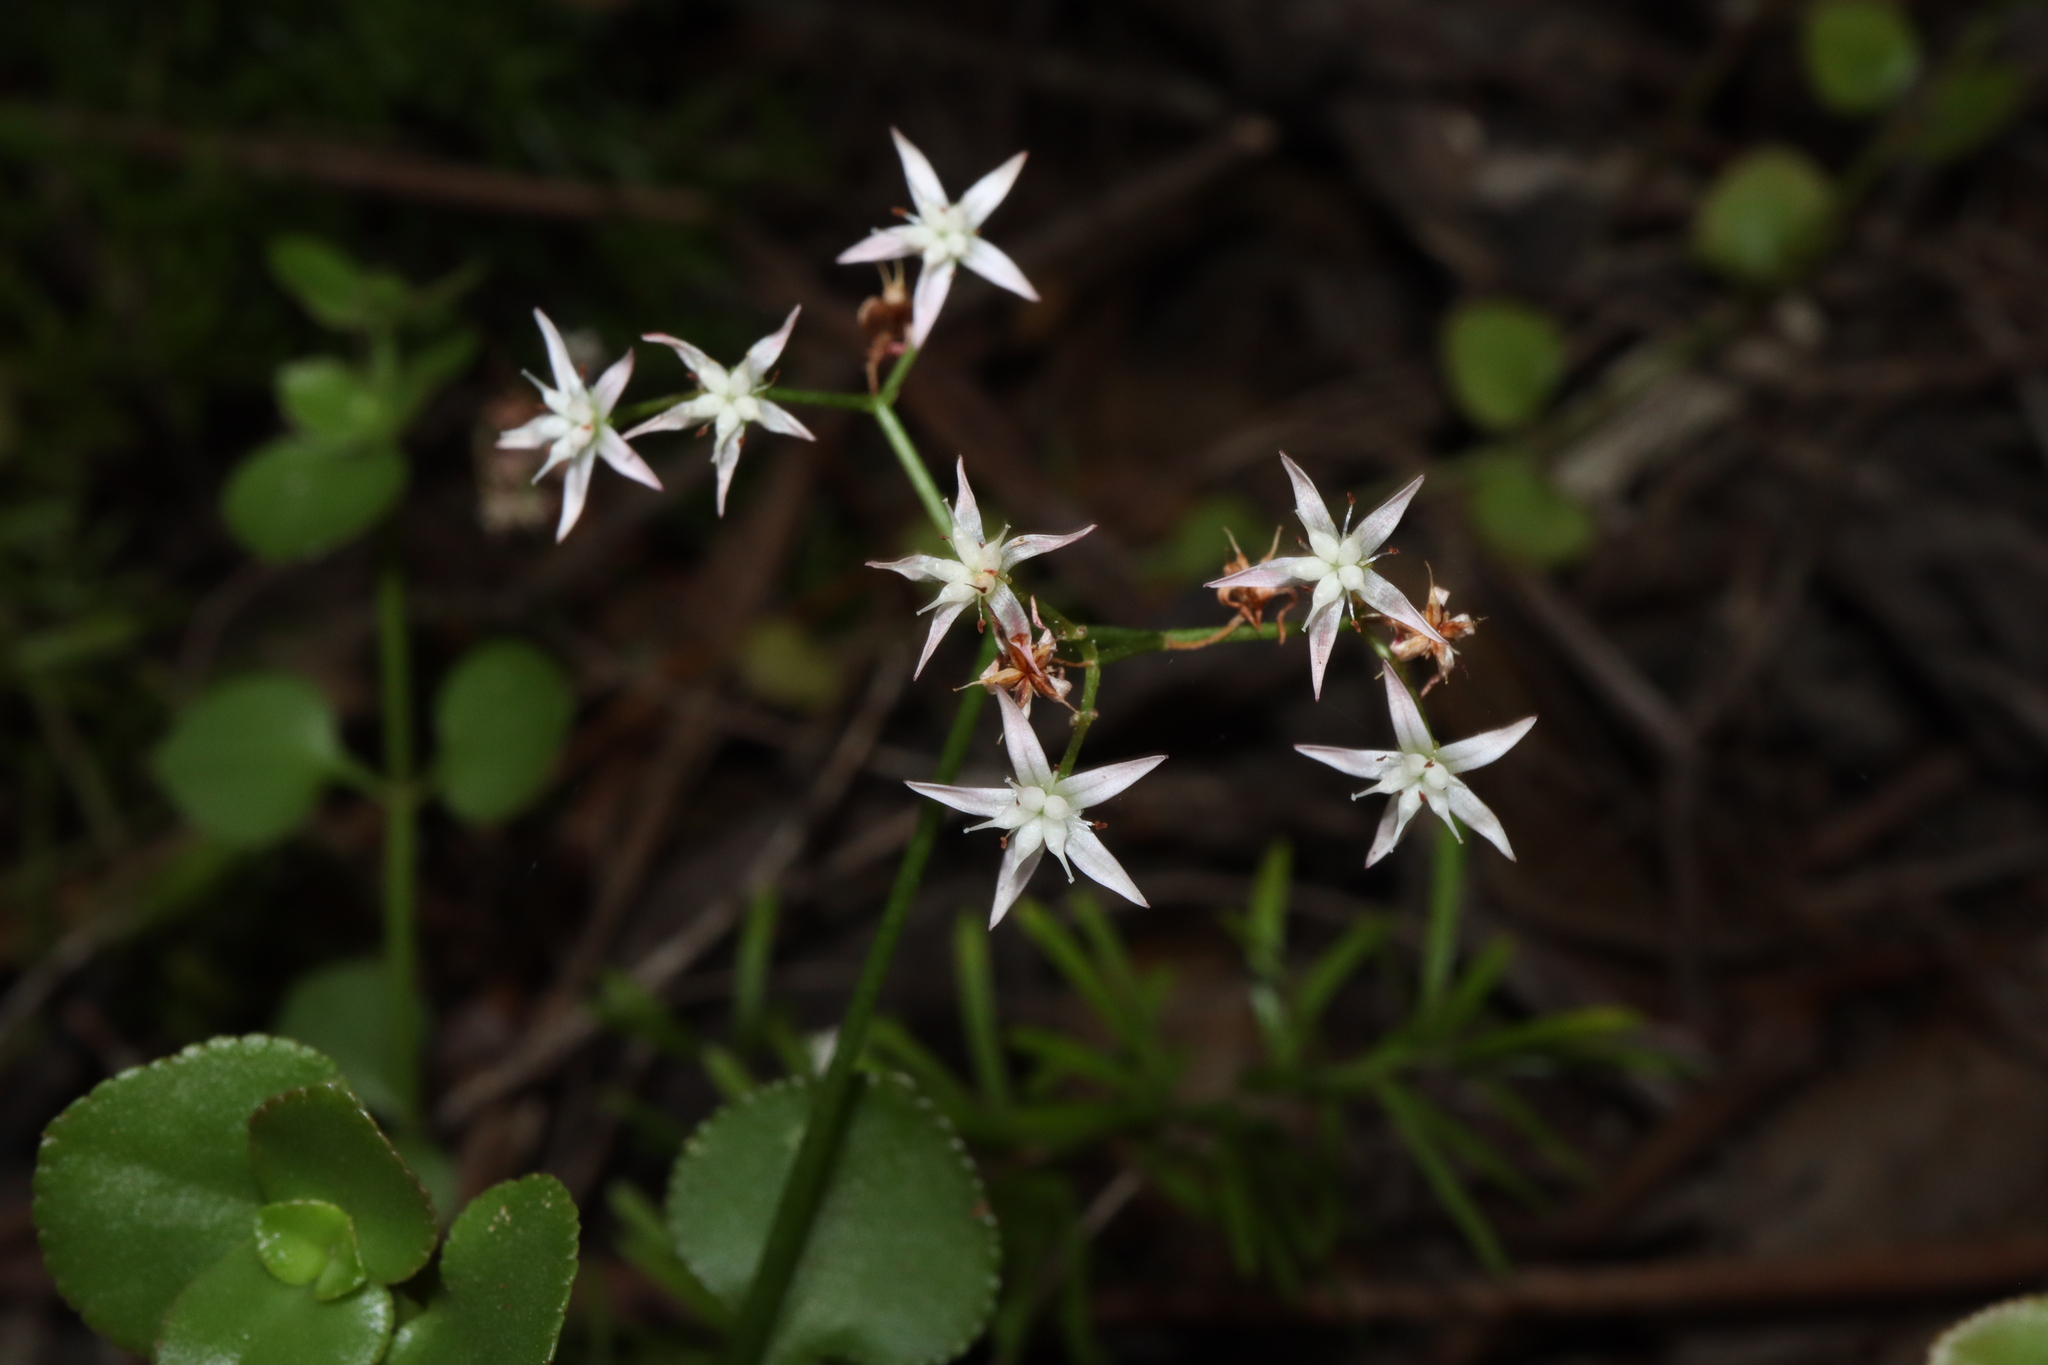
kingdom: Plantae
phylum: Tracheophyta
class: Magnoliopsida
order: Saxifragales
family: Crassulaceae
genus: Crassula
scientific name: Crassula sarmentosa
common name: Jade-tree
